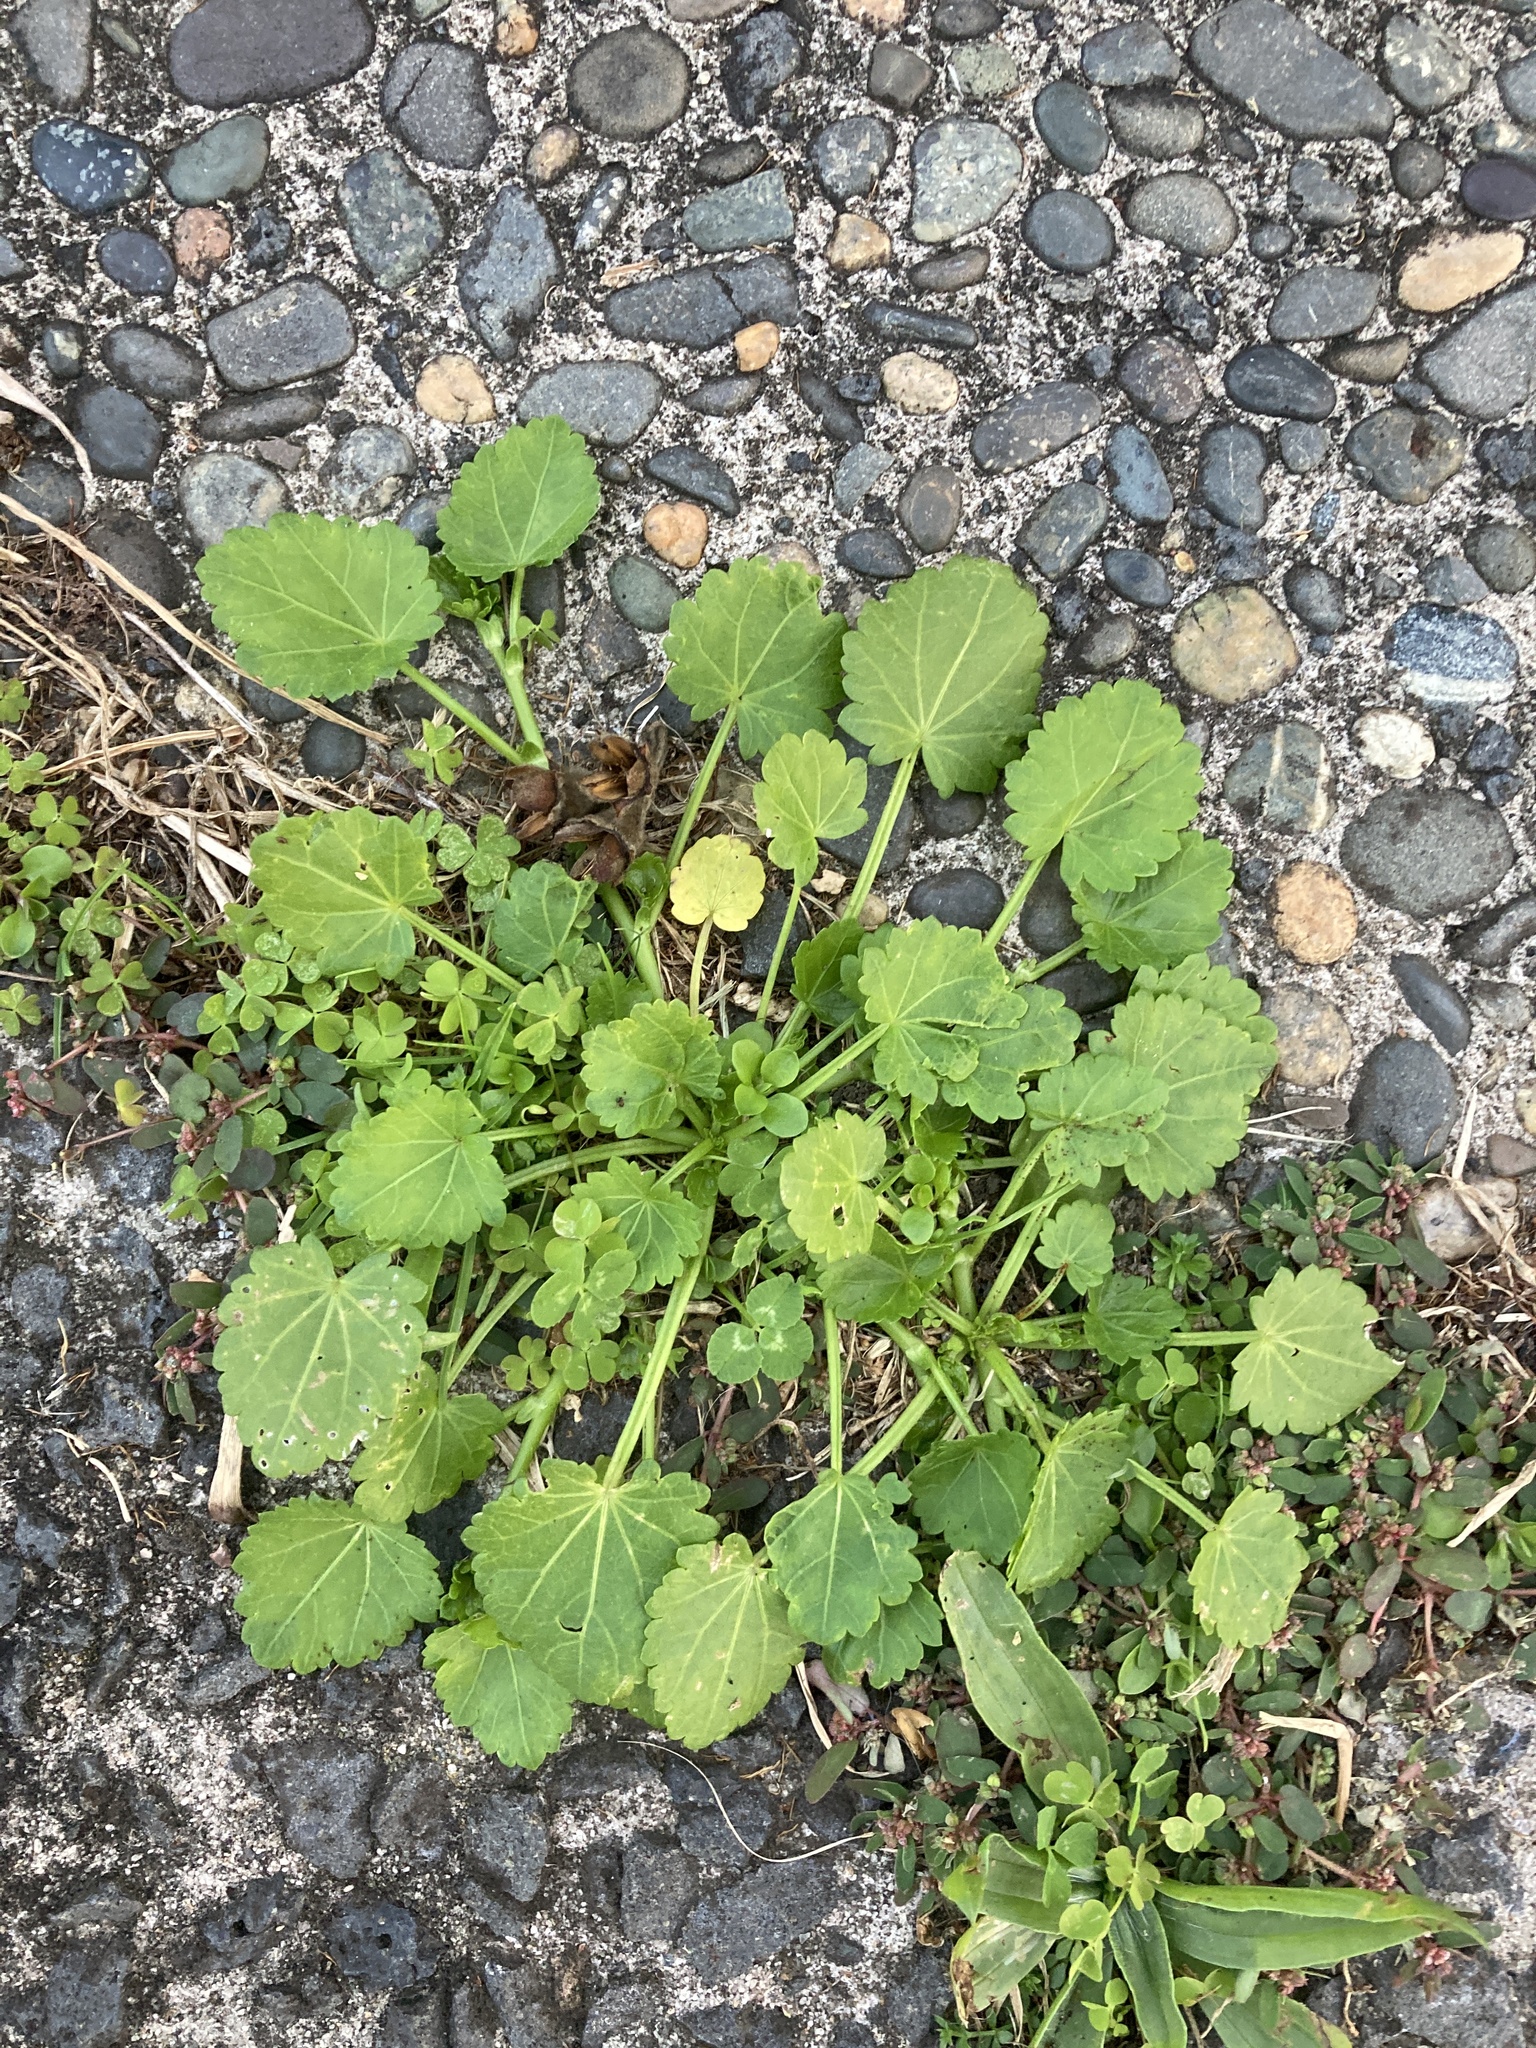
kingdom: Plantae
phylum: Tracheophyta
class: Magnoliopsida
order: Caryophyllales
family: Polygonaceae
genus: Rumex
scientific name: Rumex pulcher
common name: Fiddle dock
